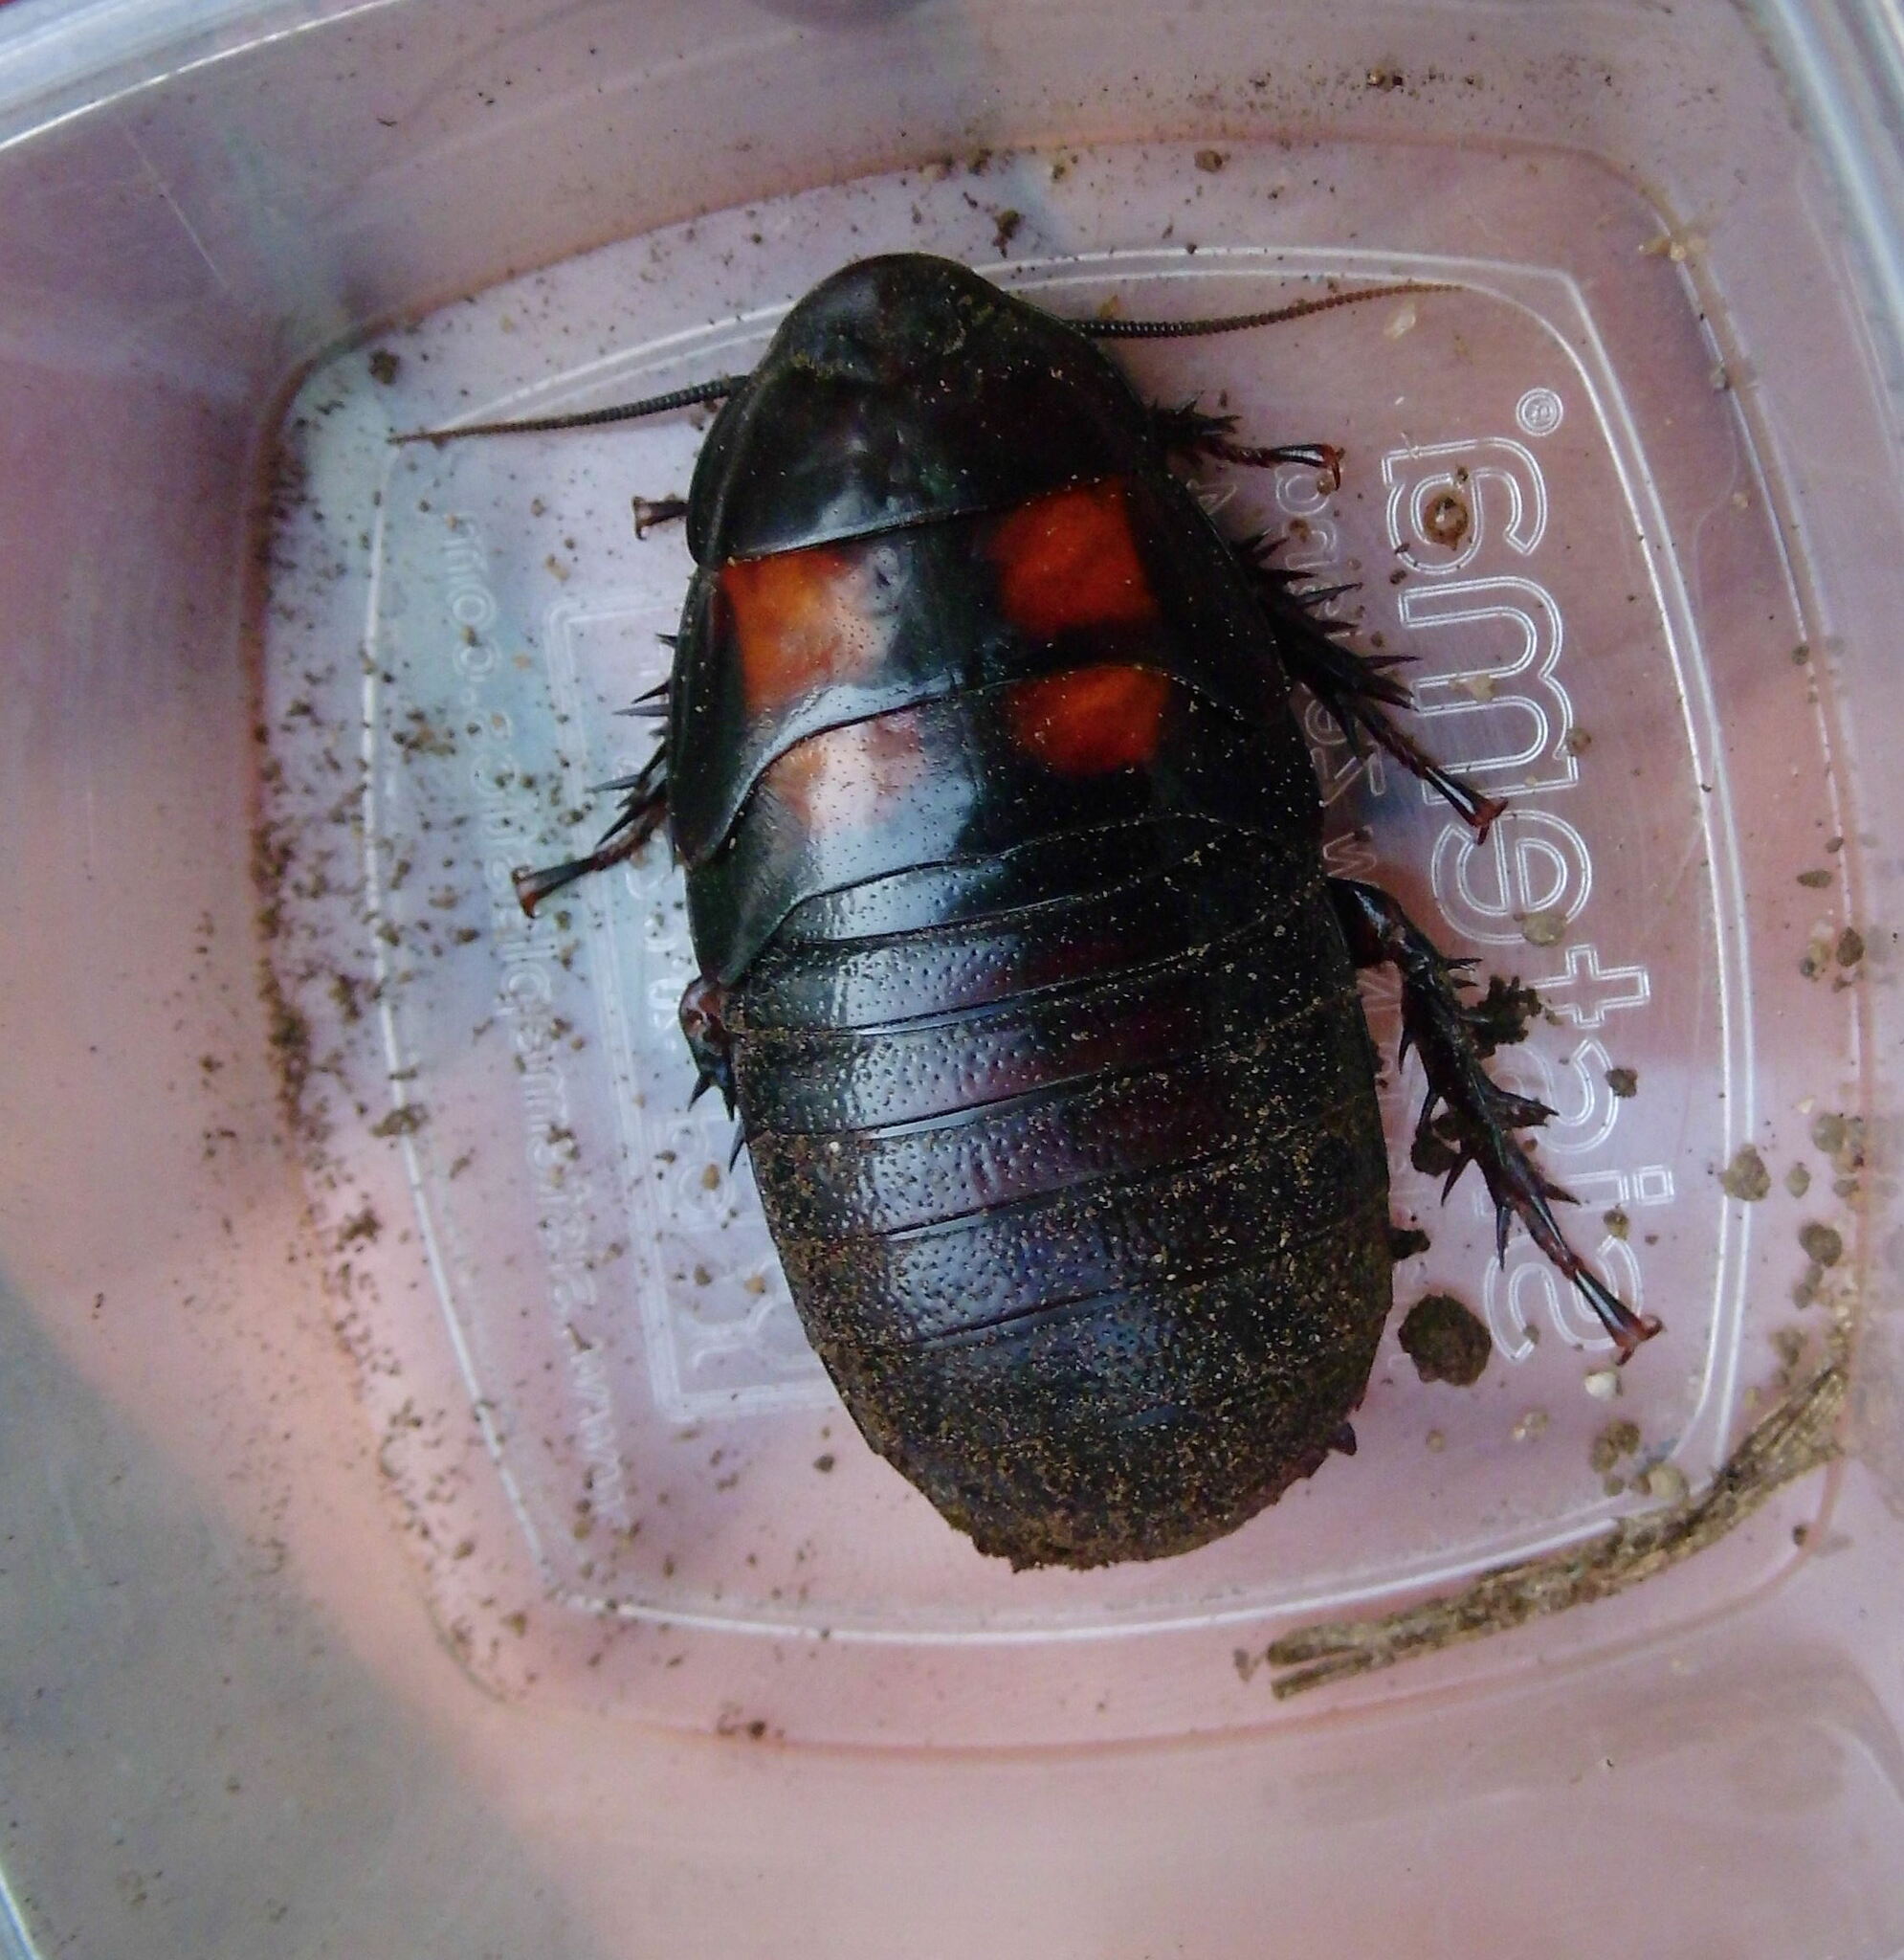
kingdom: Animalia
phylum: Arthropoda
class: Insecta
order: Blattodea
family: Blaberidae
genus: Panesthia
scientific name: Panesthia angustipennis
